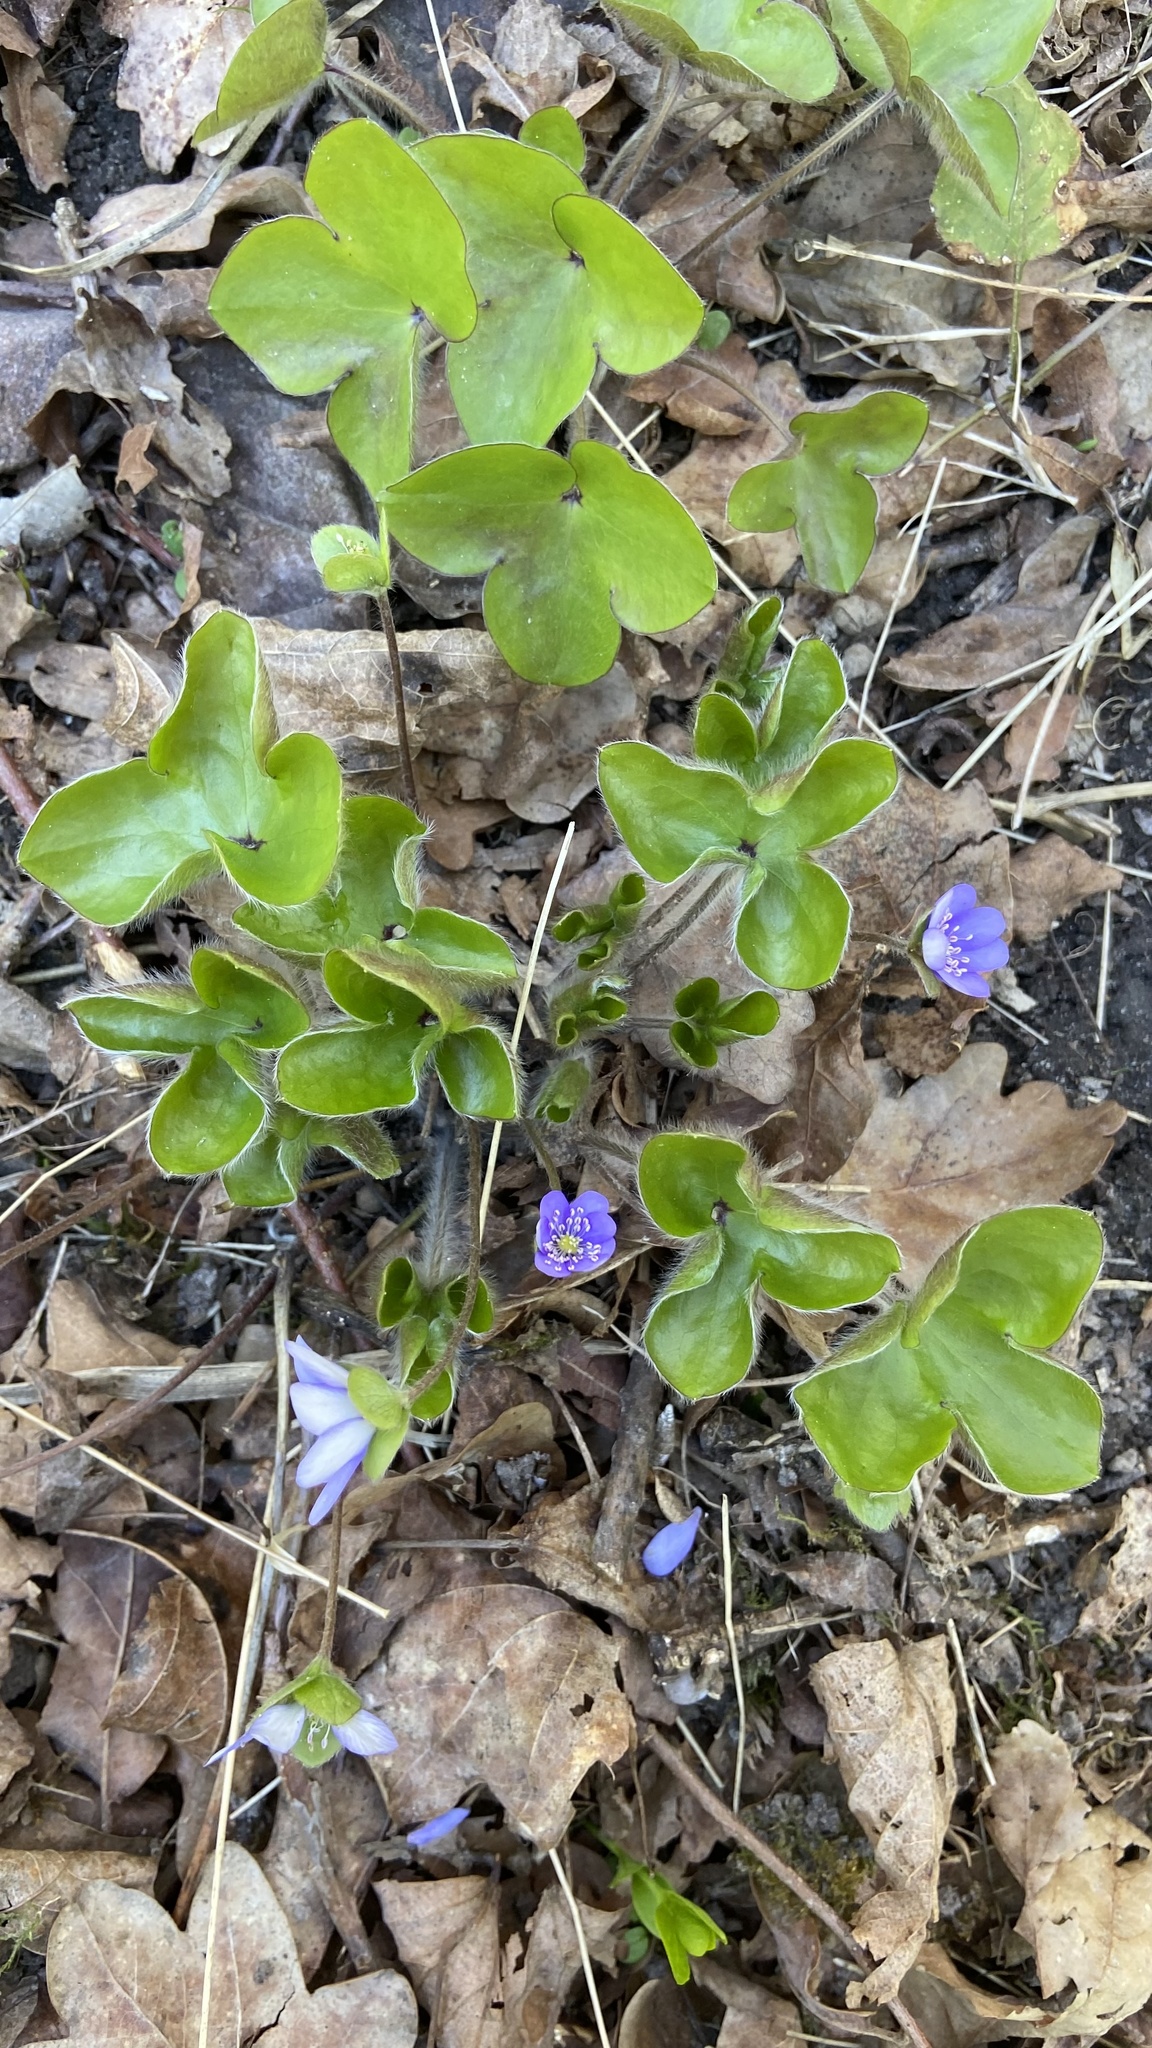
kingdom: Plantae
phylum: Tracheophyta
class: Magnoliopsida
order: Ranunculales
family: Ranunculaceae
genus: Hepatica
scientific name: Hepatica nobilis
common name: Liverleaf
